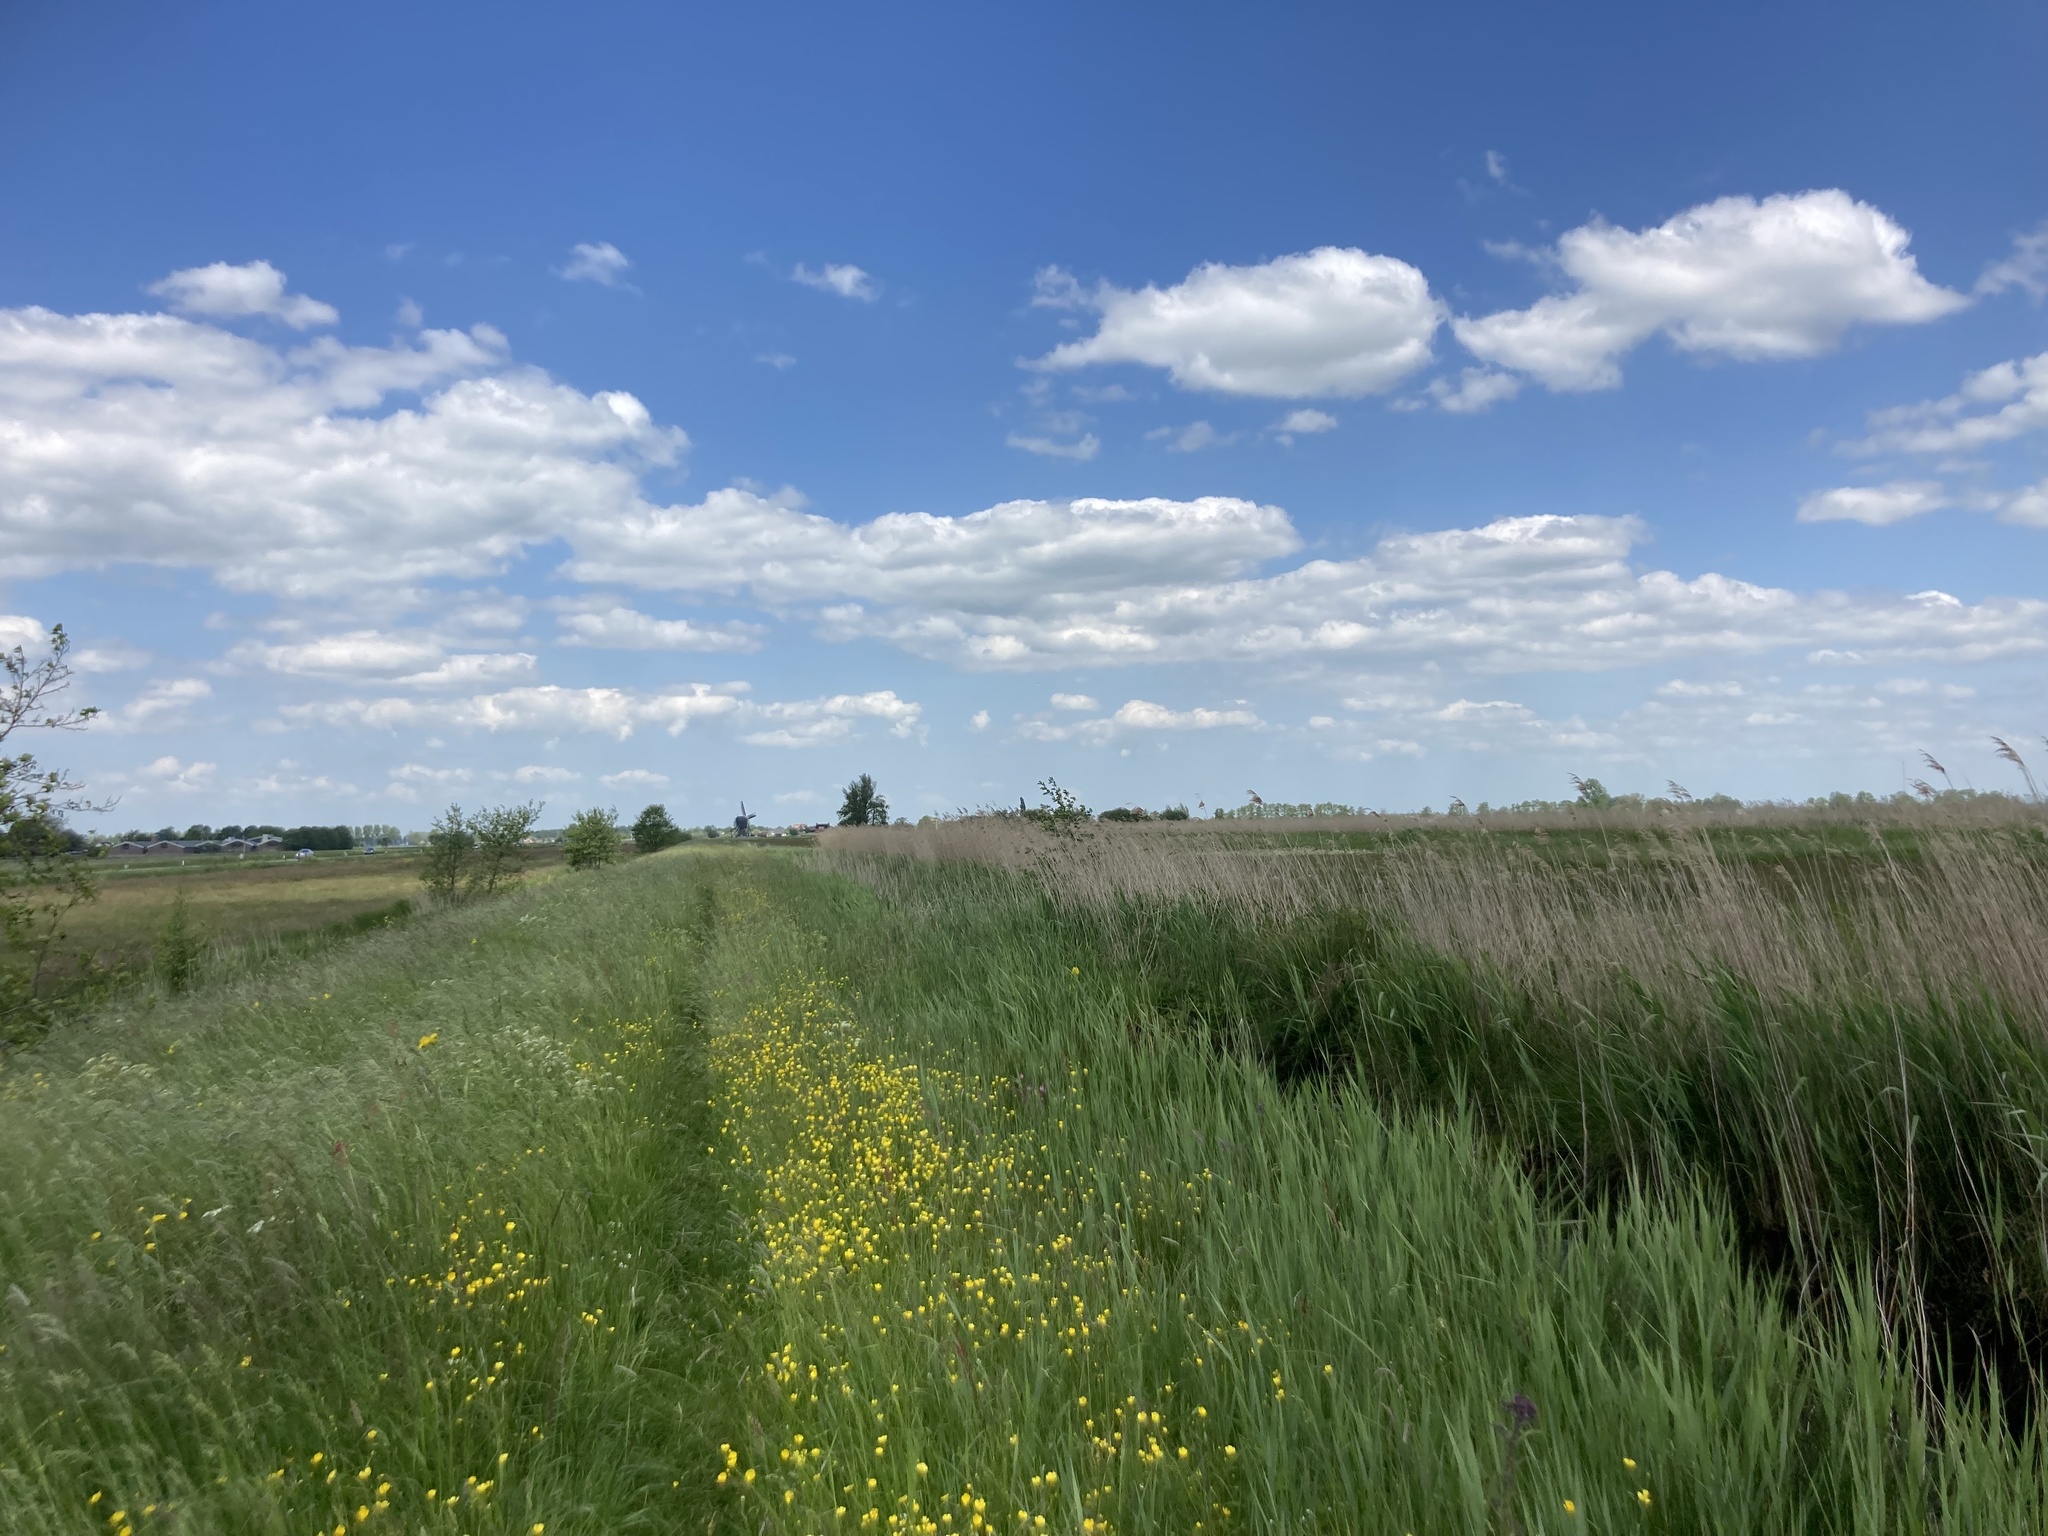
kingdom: Plantae
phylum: Tracheophyta
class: Liliopsida
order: Poales
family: Poaceae
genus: Phragmites
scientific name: Phragmites australis
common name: Common reed
